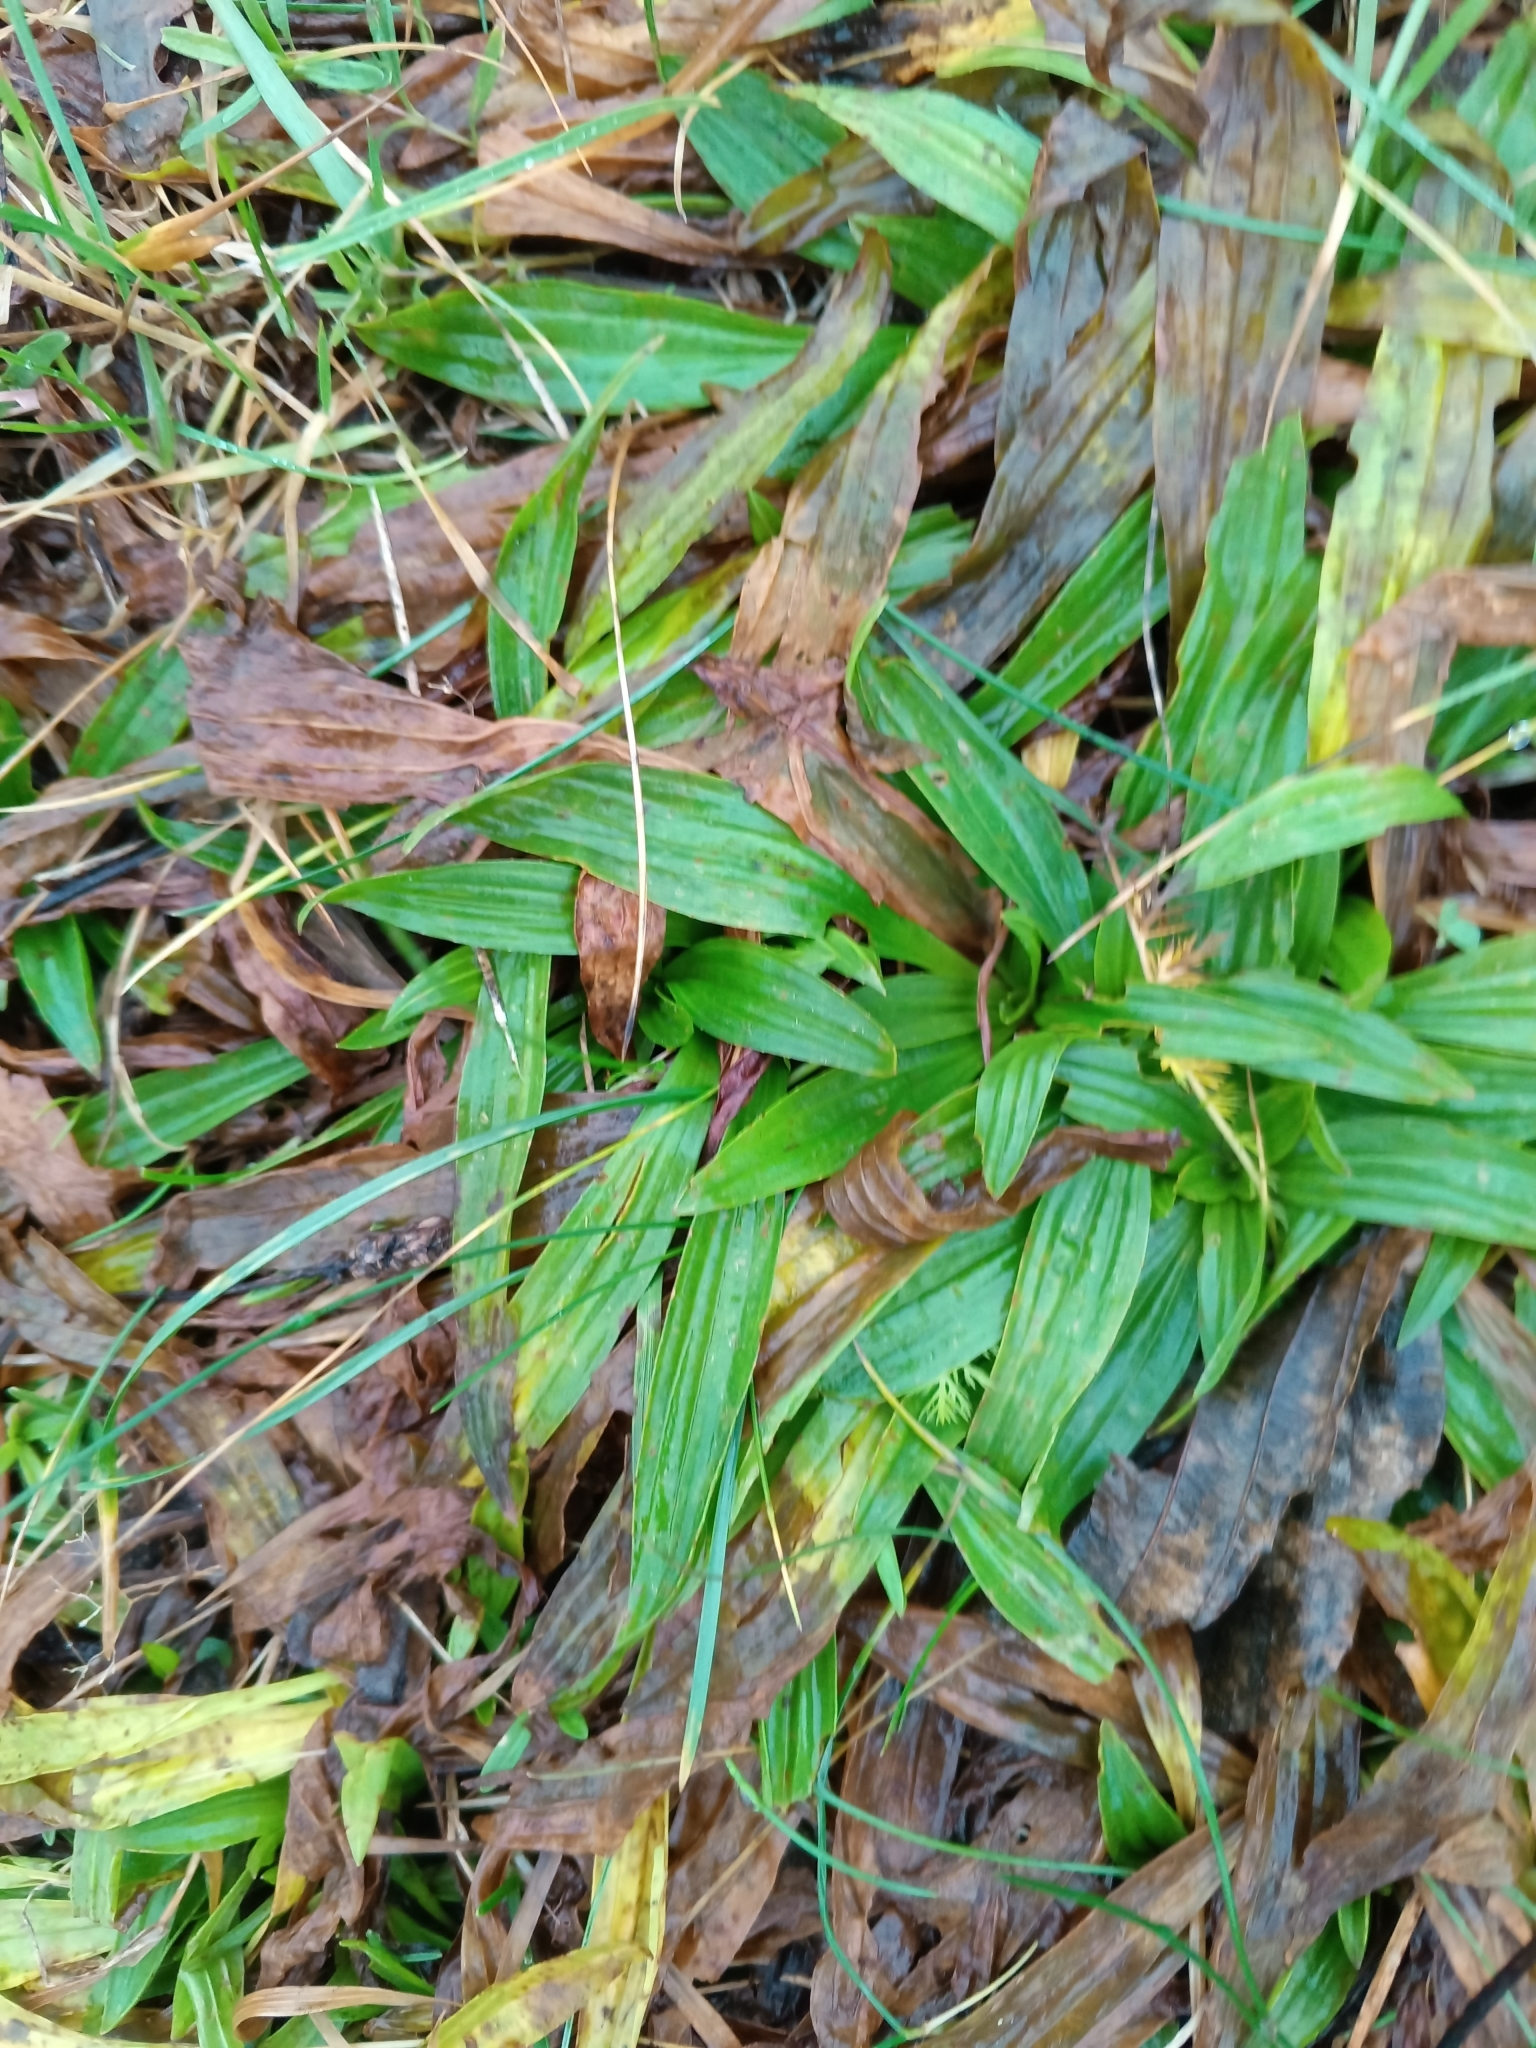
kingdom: Plantae
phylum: Tracheophyta
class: Magnoliopsida
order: Lamiales
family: Plantaginaceae
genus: Plantago
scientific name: Plantago lanceolata
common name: Ribwort plantain
